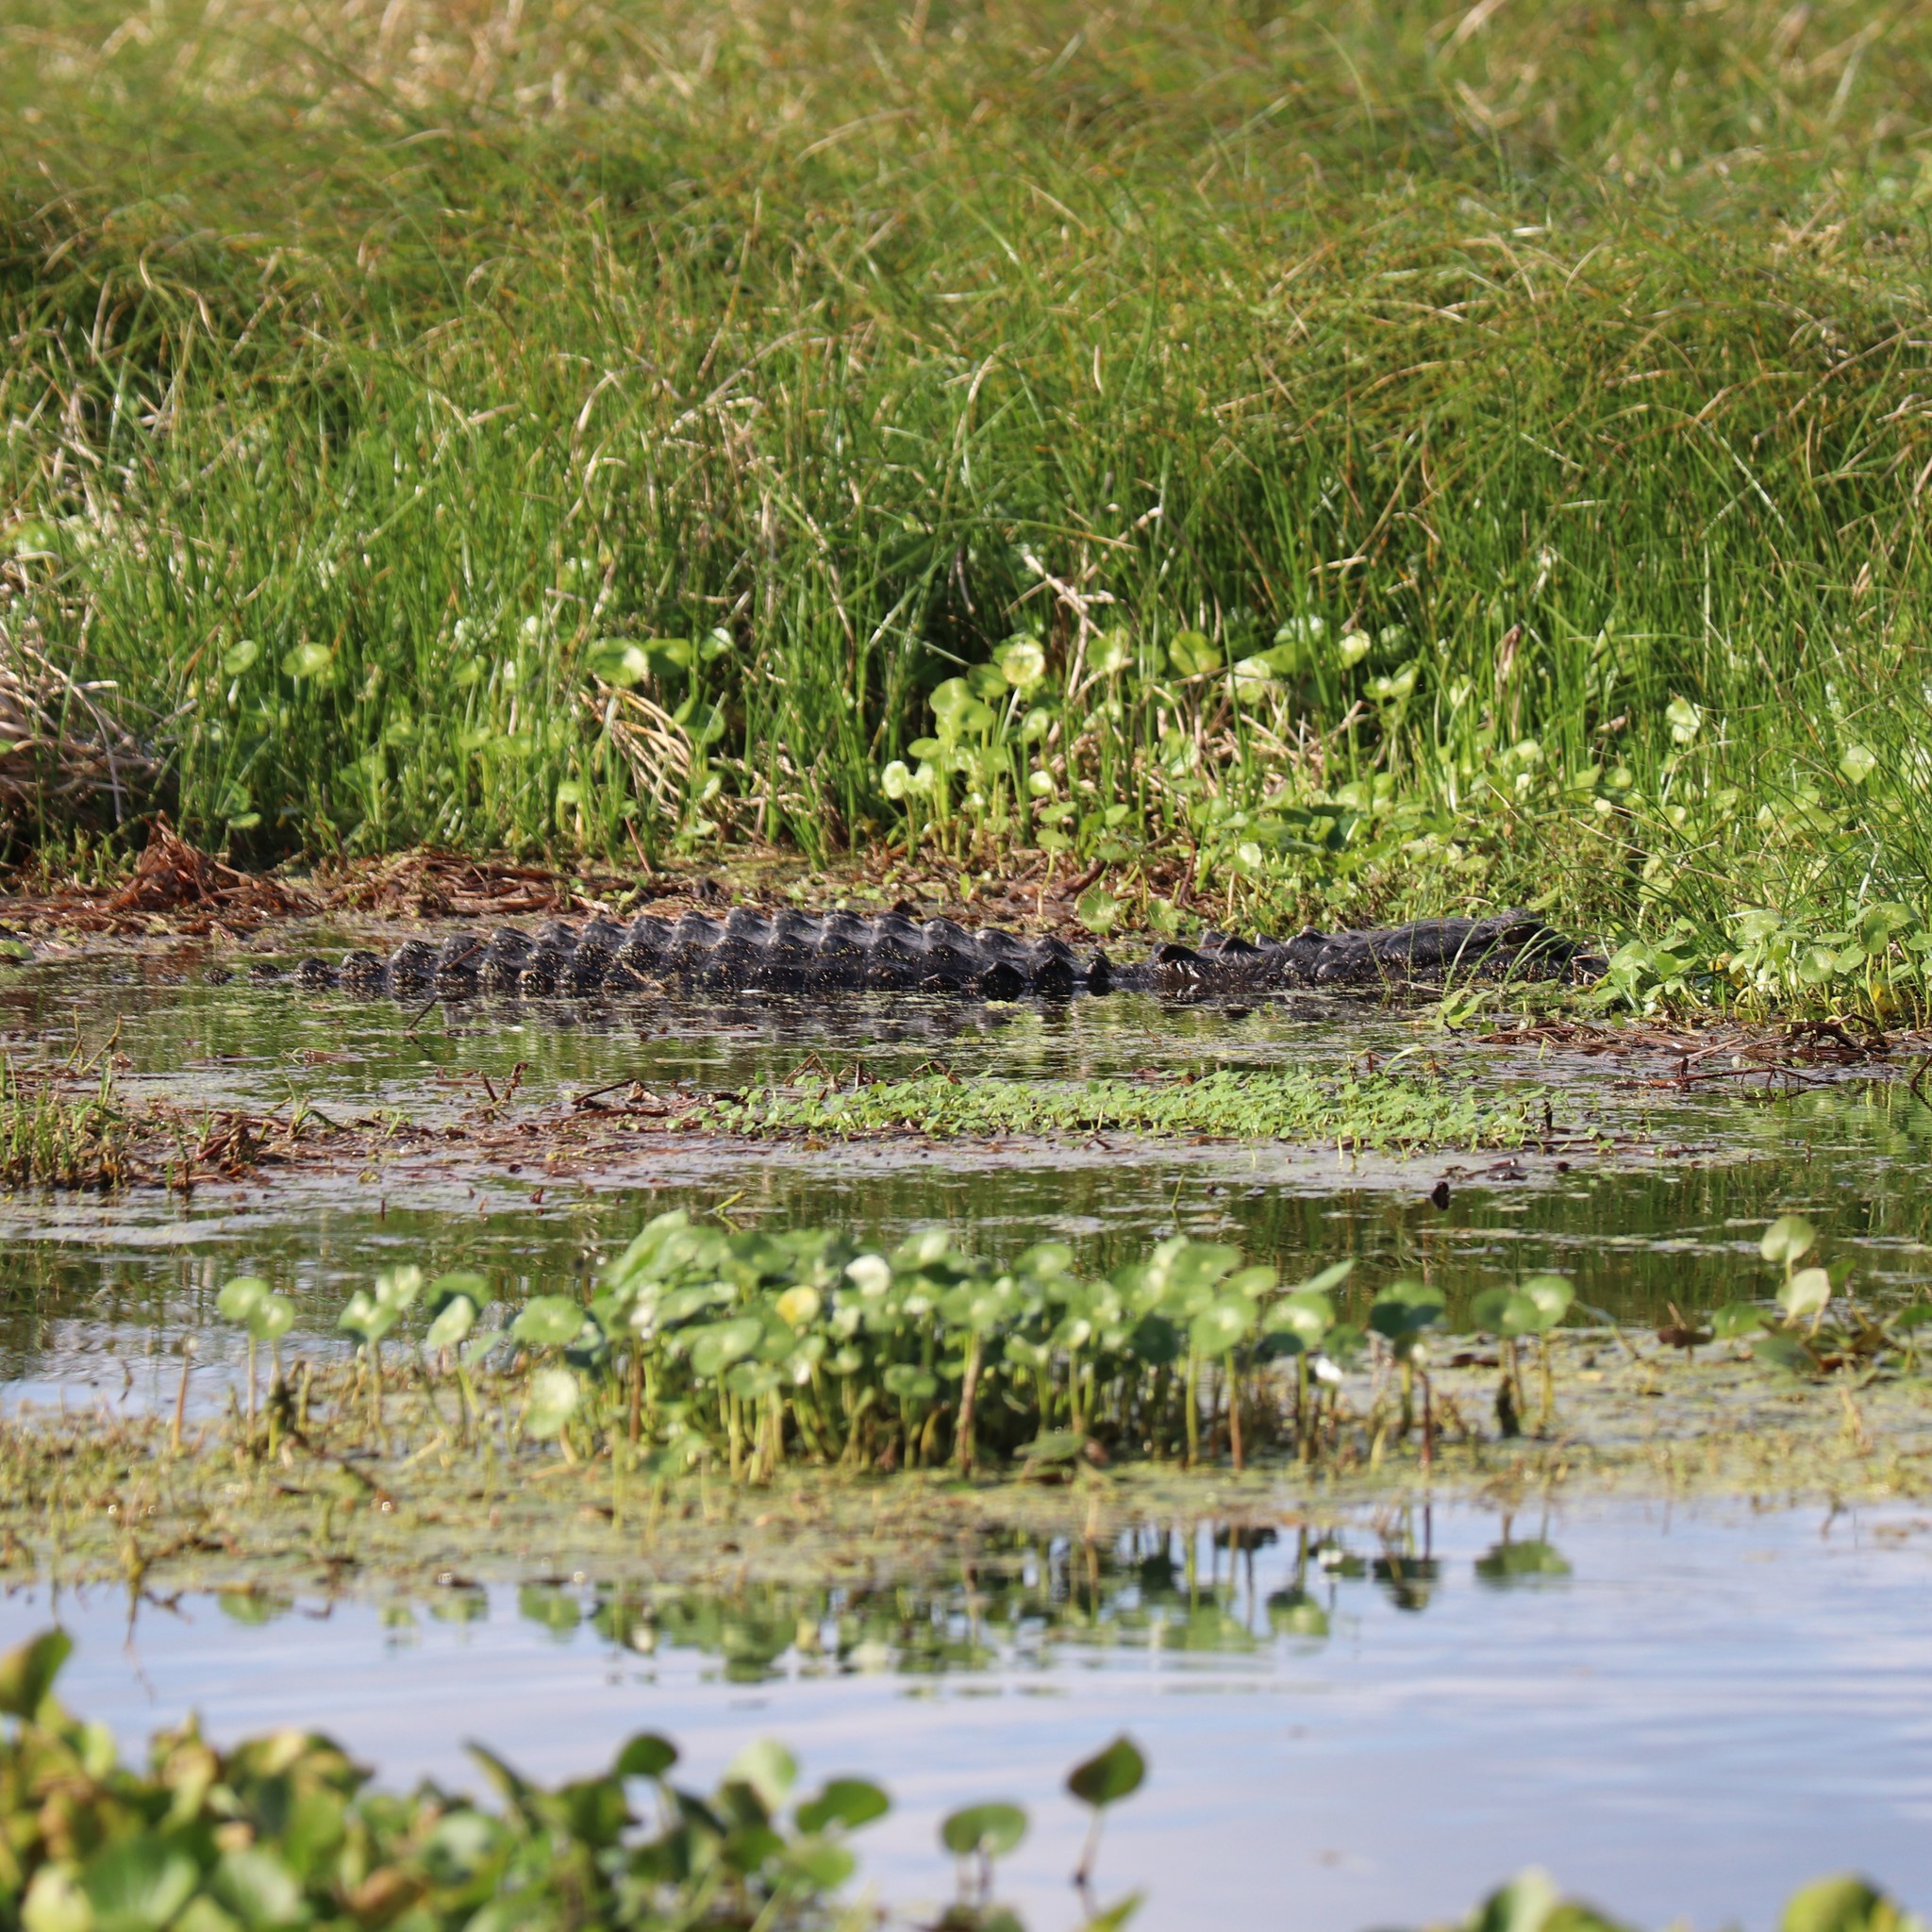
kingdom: Animalia
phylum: Chordata
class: Crocodylia
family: Alligatoridae
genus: Alligator
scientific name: Alligator mississippiensis
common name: American alligator
